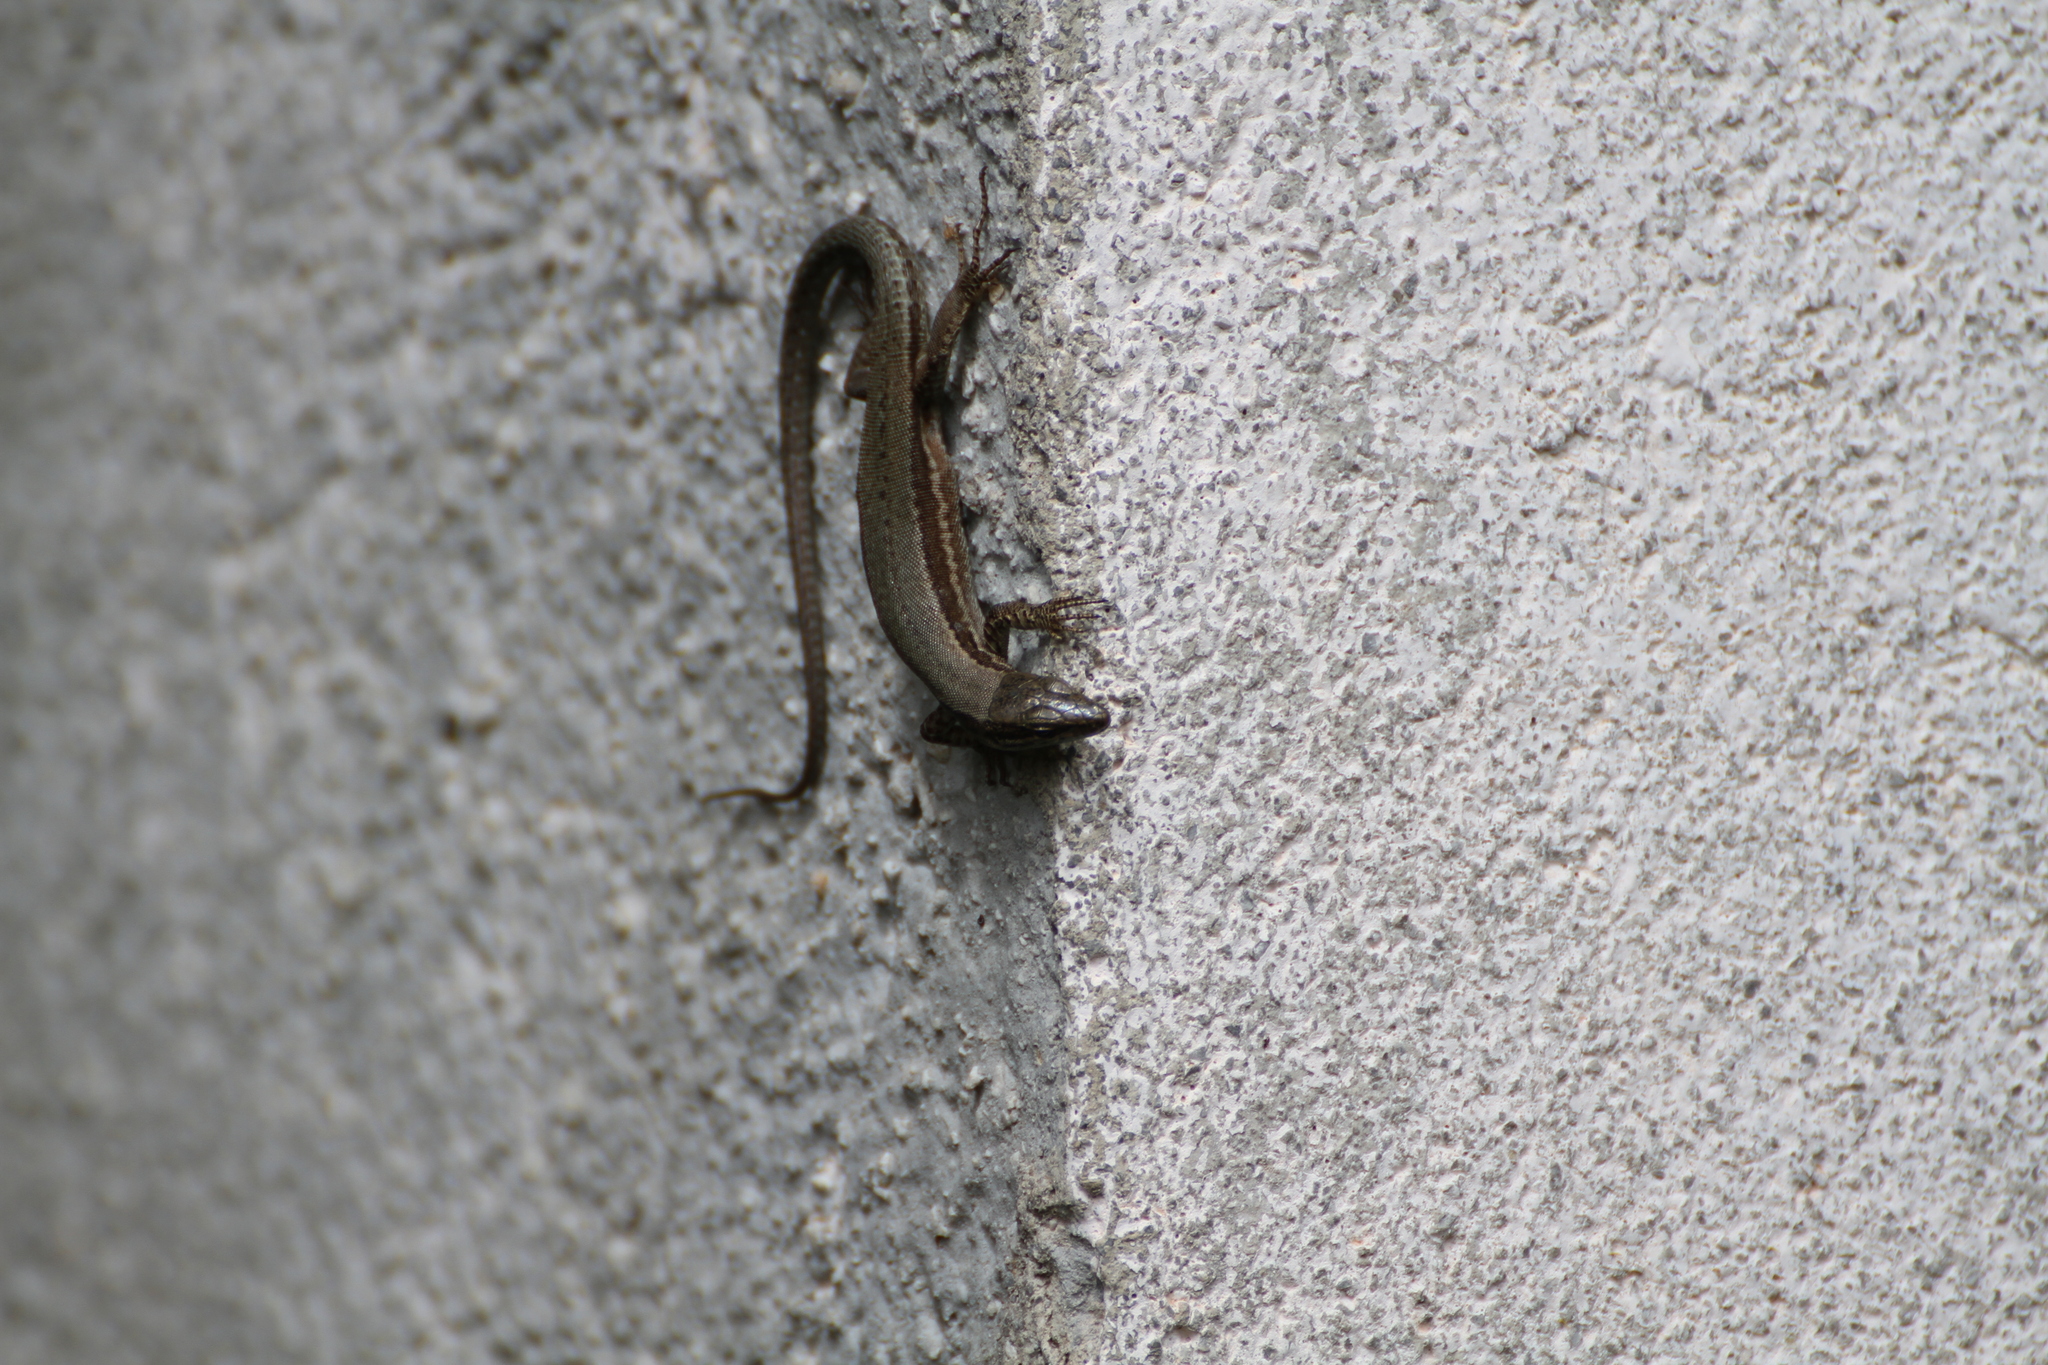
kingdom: Animalia
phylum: Chordata
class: Squamata
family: Lacertidae
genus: Podarcis
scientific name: Podarcis muralis
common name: Common wall lizard
